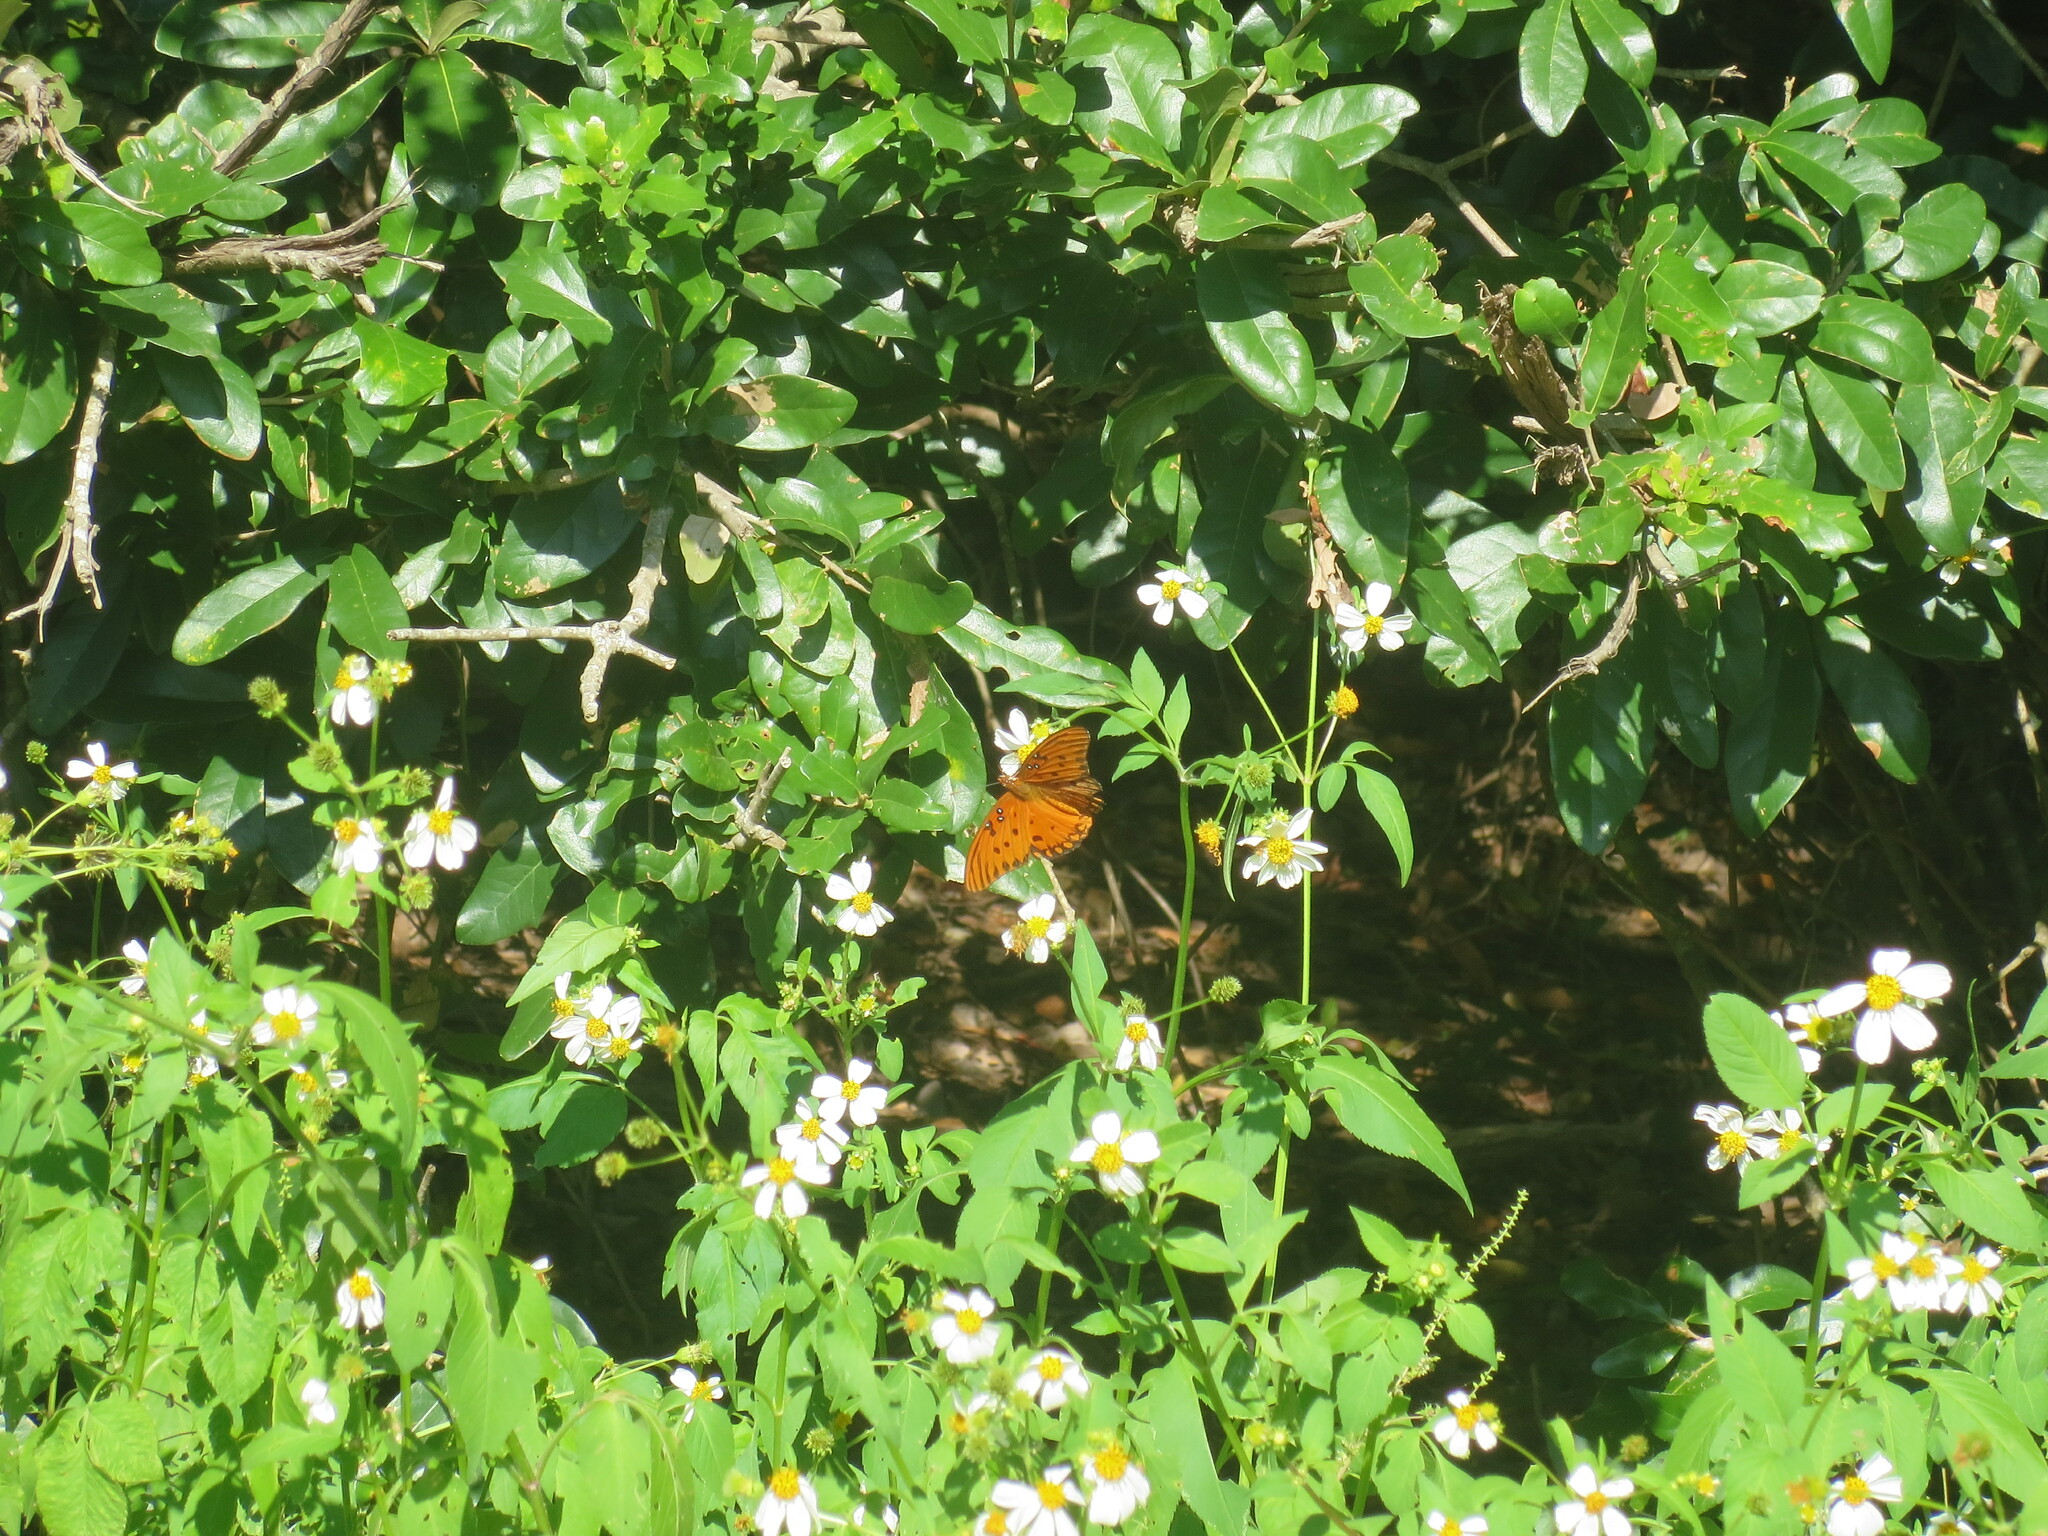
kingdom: Animalia
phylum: Arthropoda
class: Insecta
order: Lepidoptera
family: Nymphalidae
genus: Dione
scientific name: Dione vanillae
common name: Gulf fritillary
